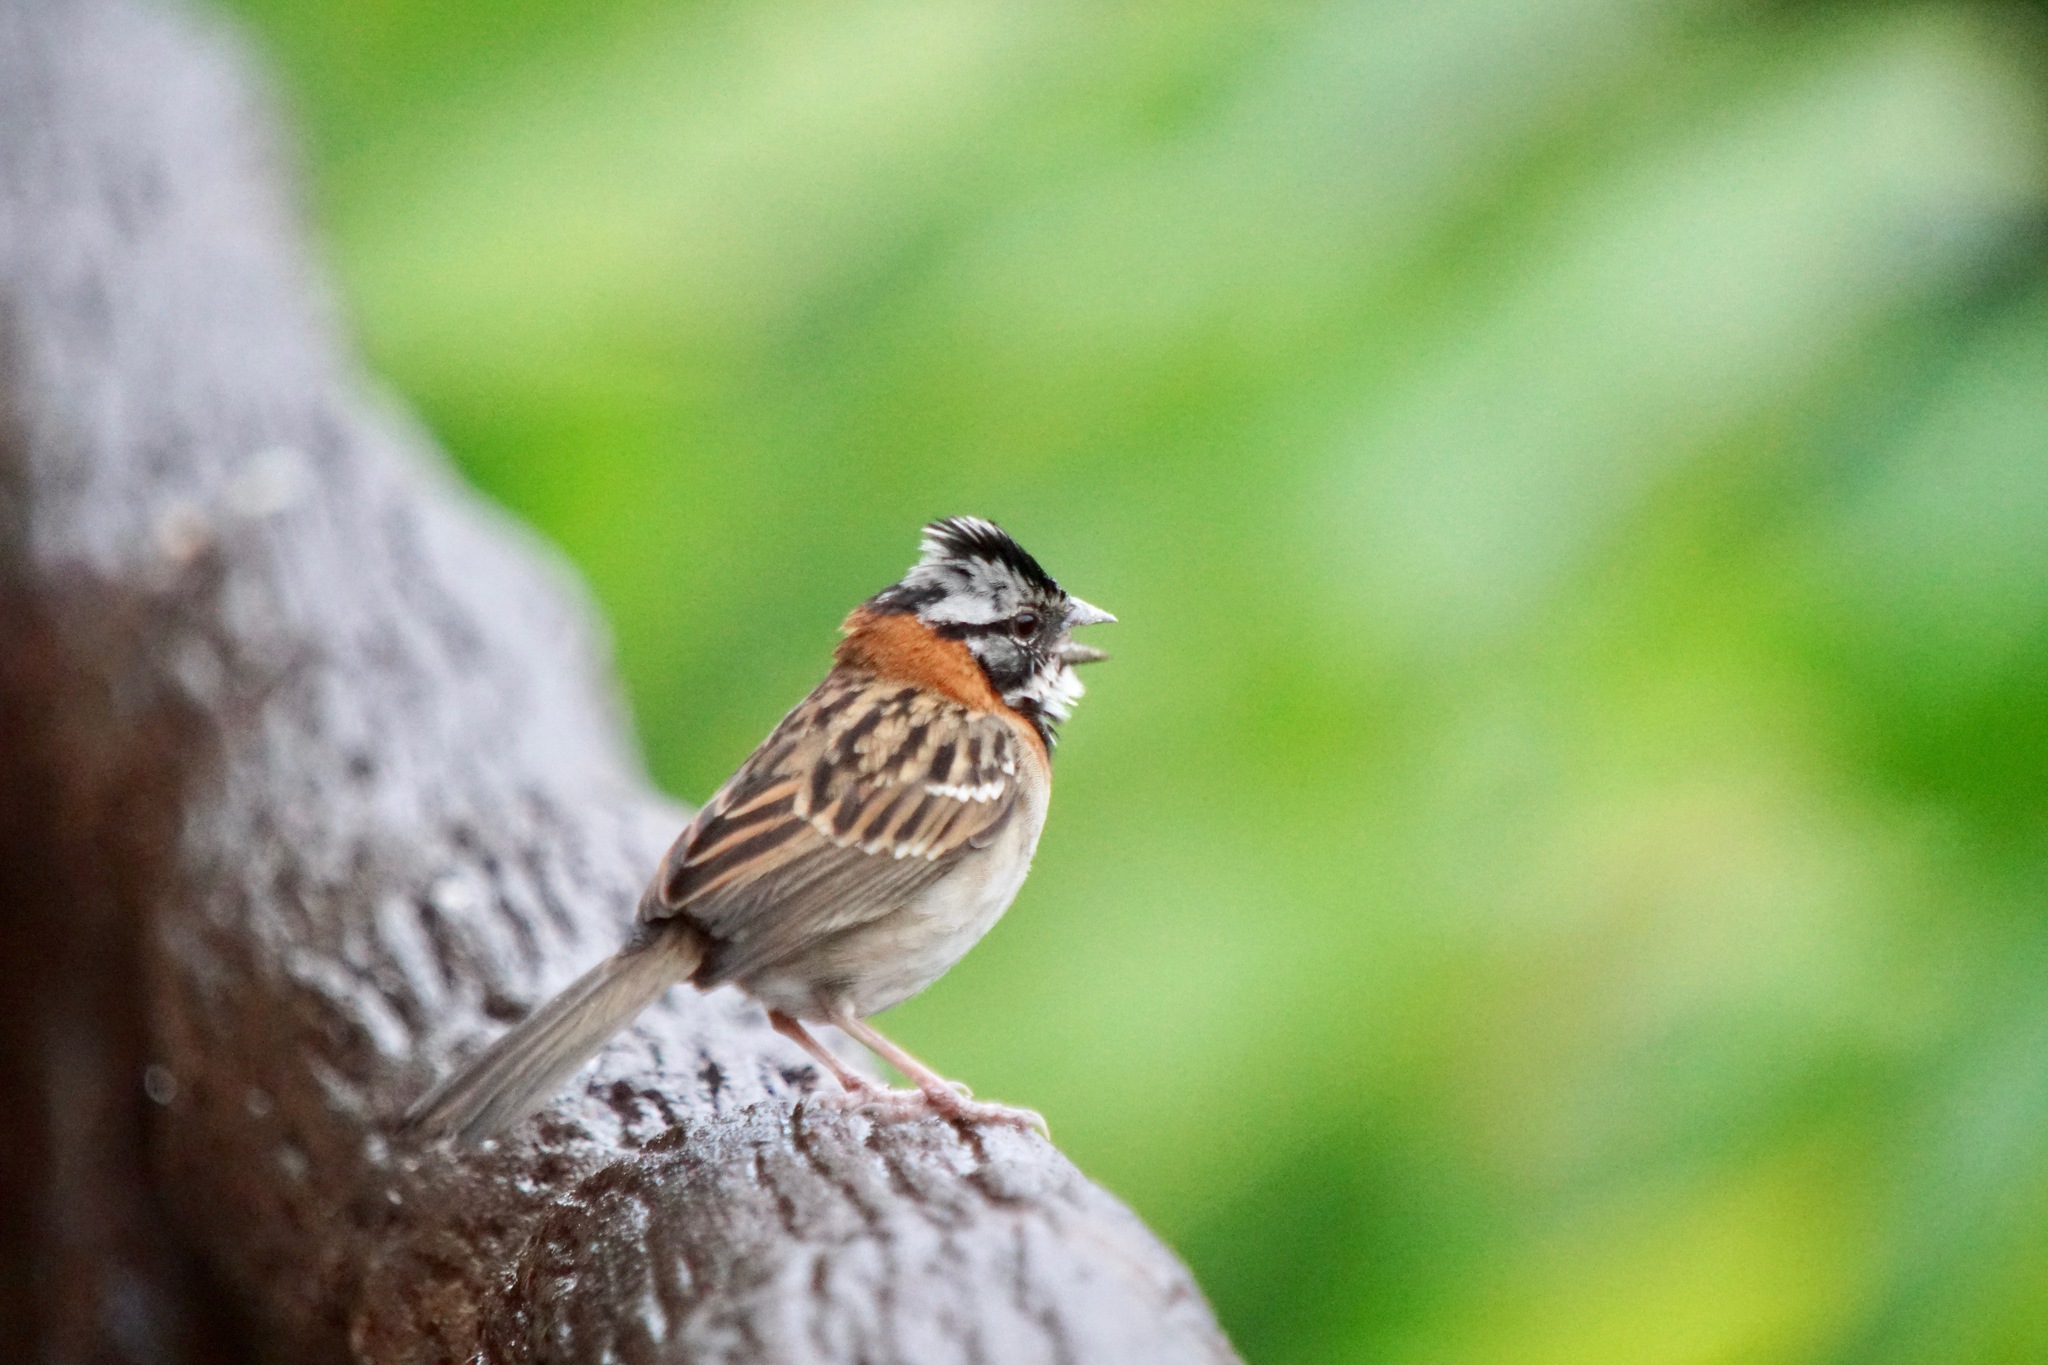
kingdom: Animalia
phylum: Chordata
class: Aves
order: Passeriformes
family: Passerellidae
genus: Zonotrichia
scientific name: Zonotrichia capensis
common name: Rufous-collared sparrow
